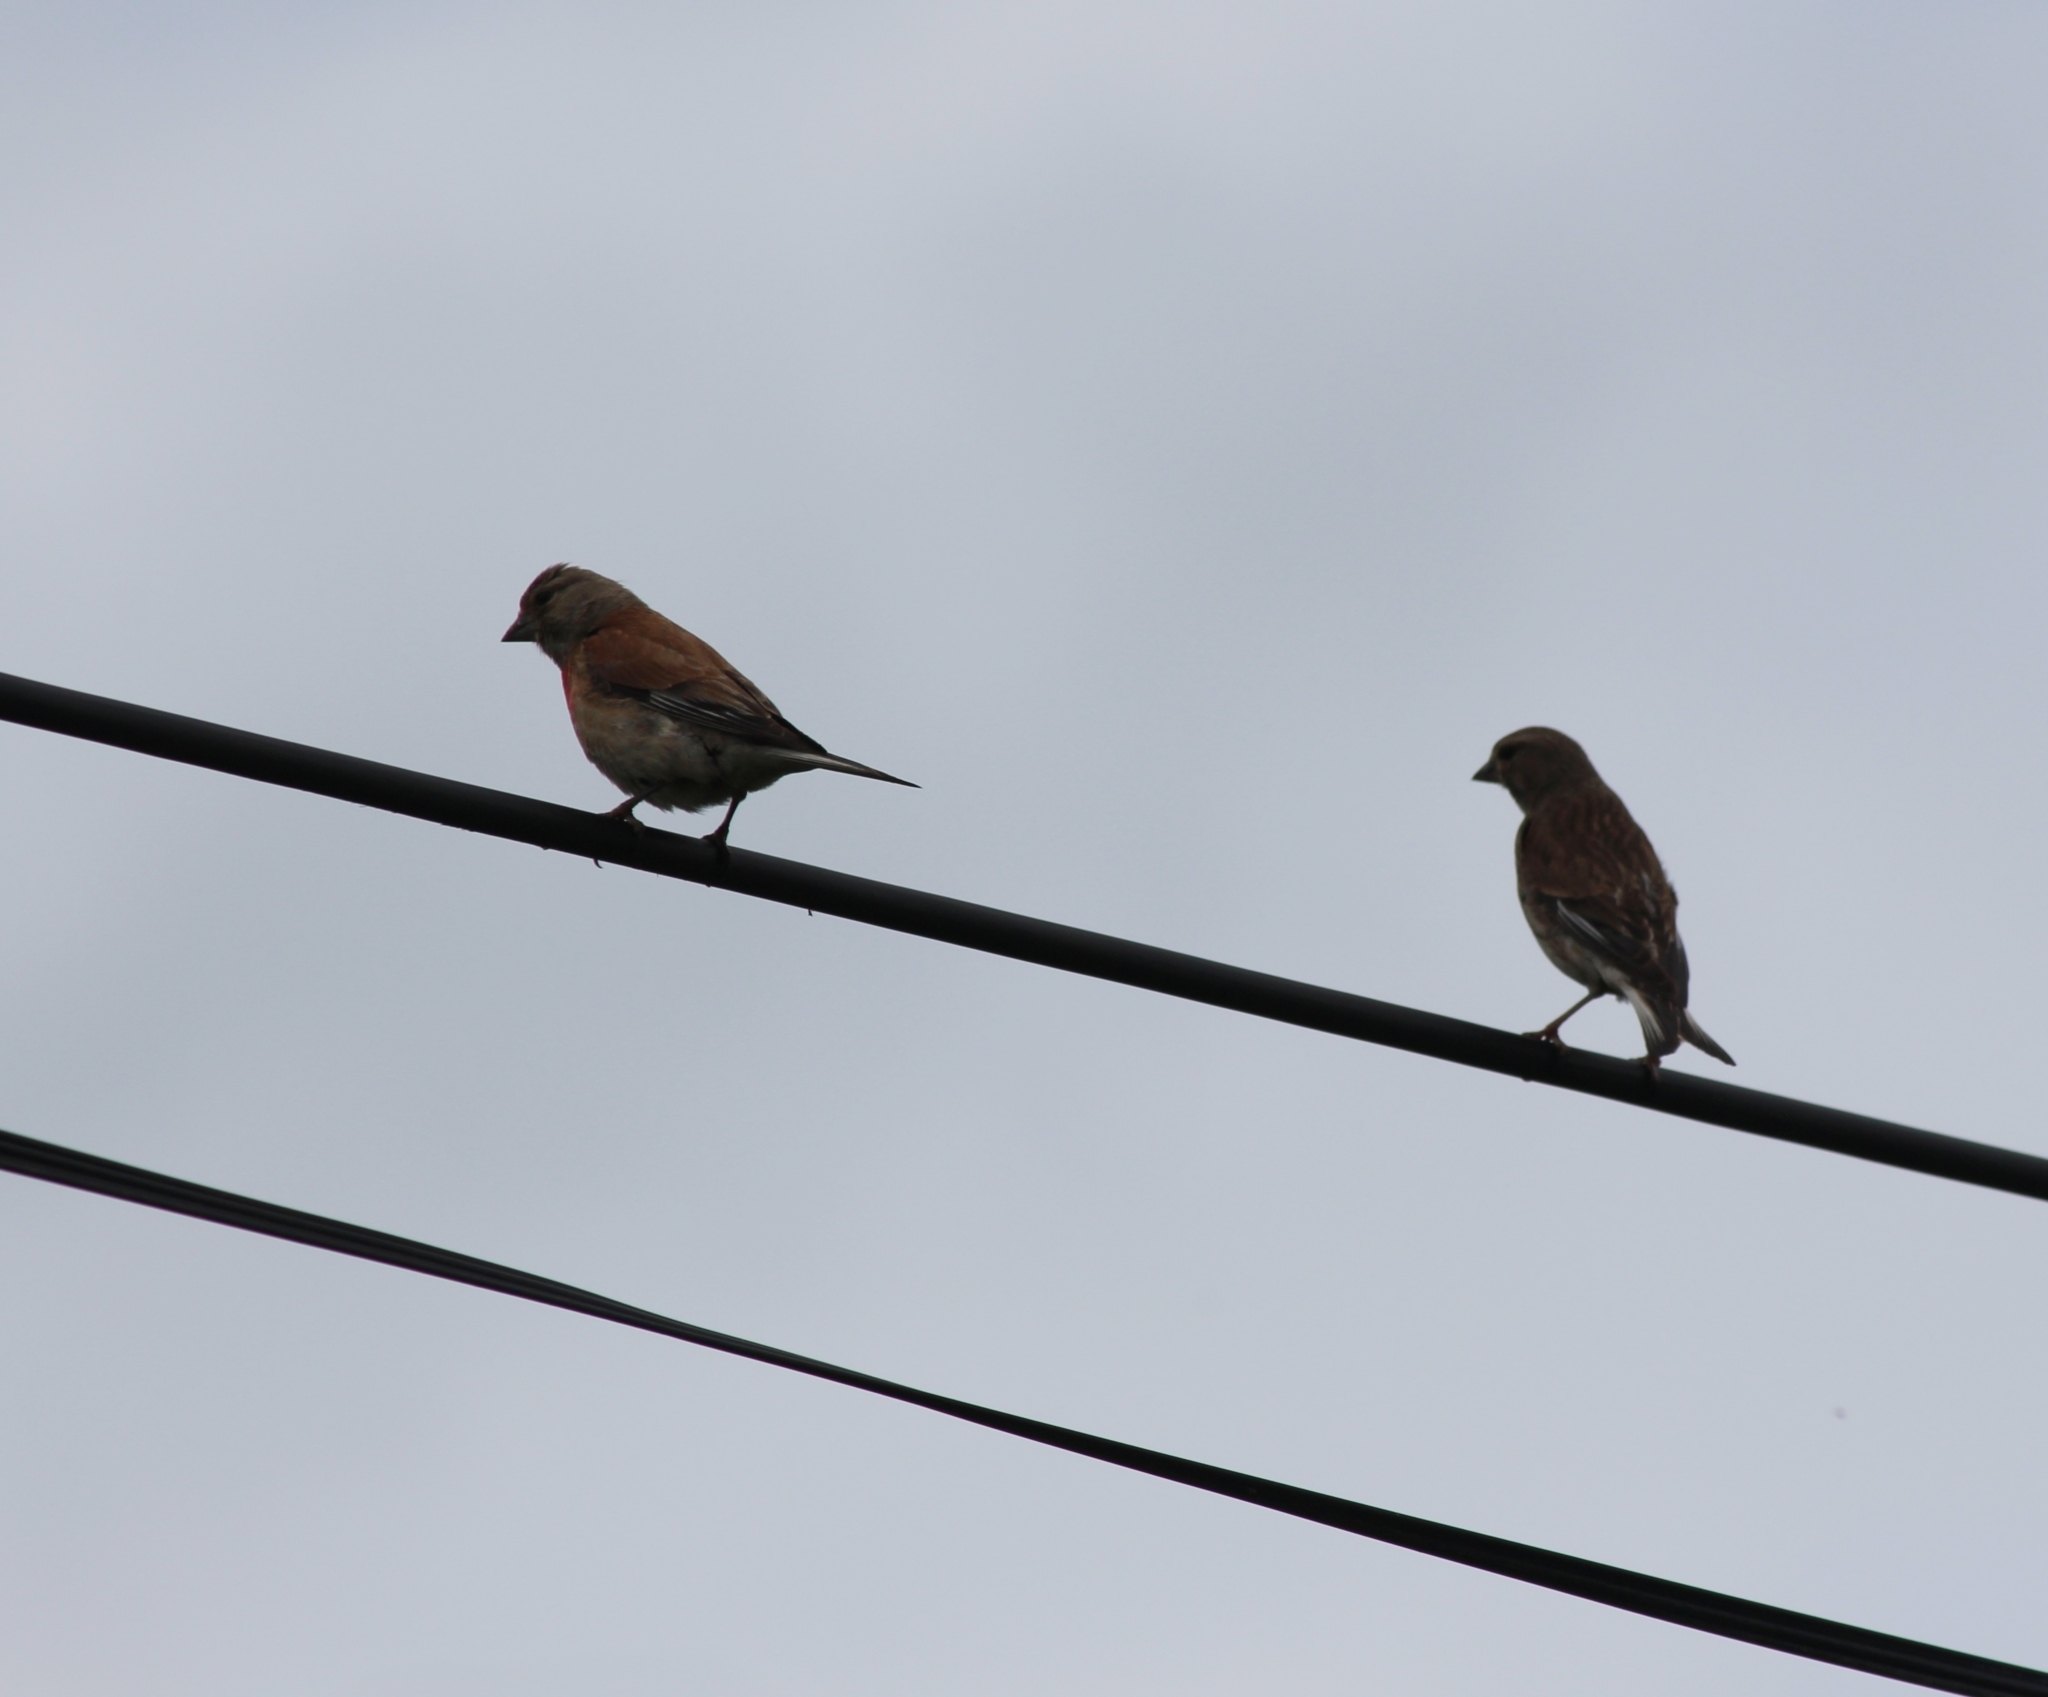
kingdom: Animalia
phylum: Chordata
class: Aves
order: Passeriformes
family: Fringillidae
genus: Linaria
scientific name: Linaria cannabina
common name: Common linnet
